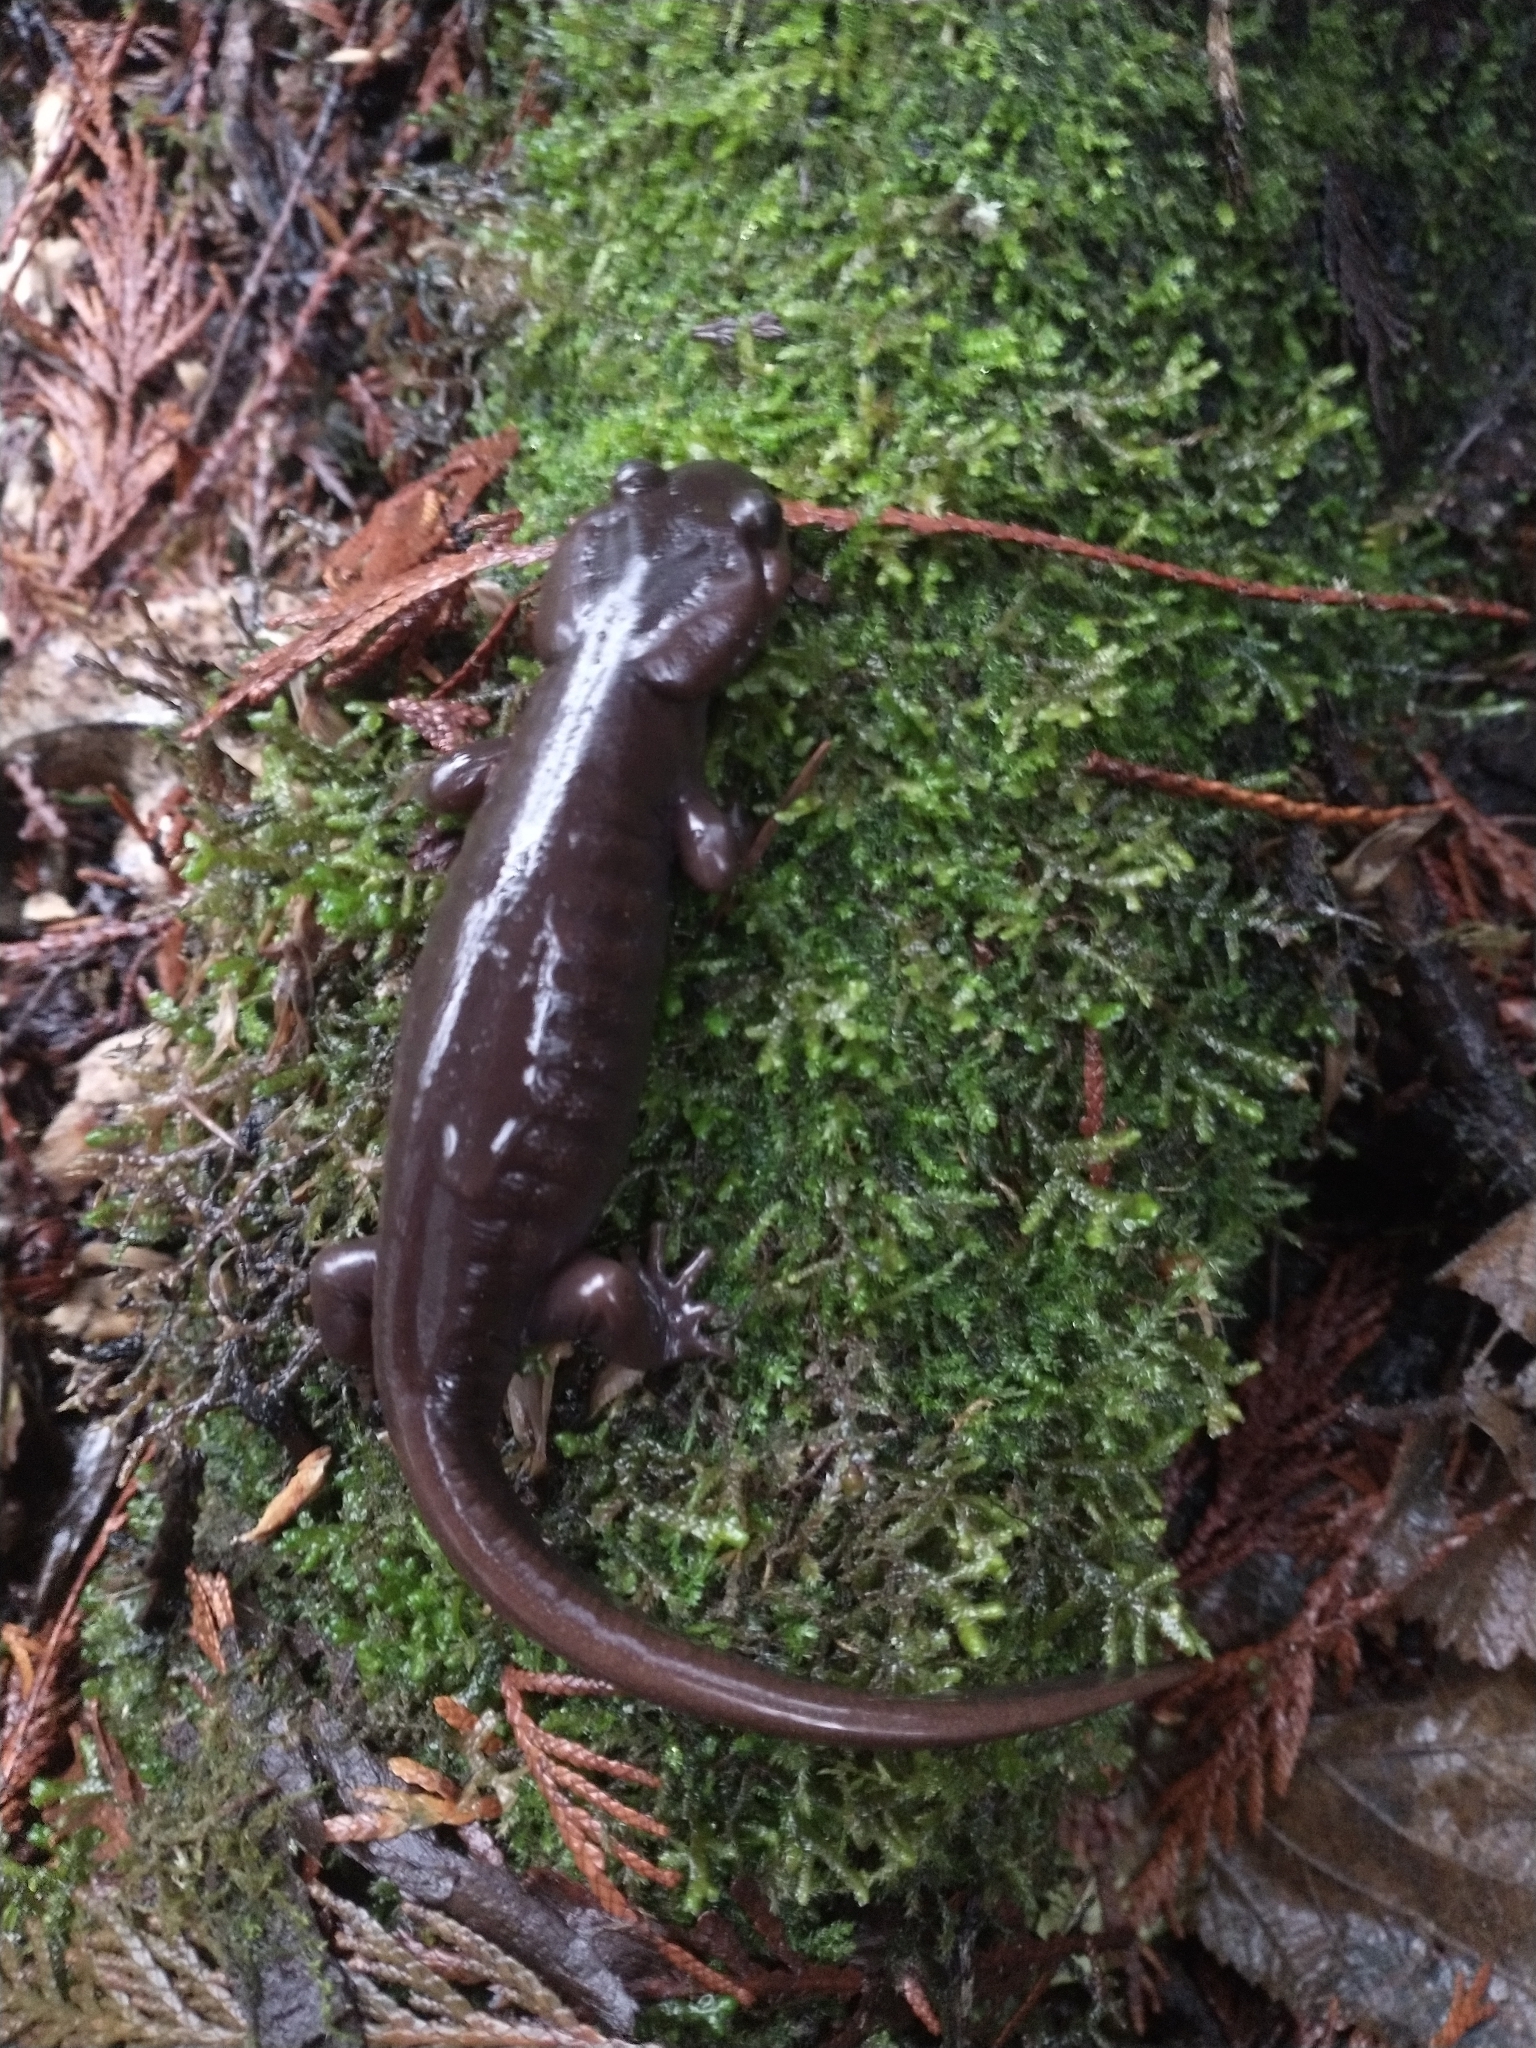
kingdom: Animalia
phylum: Chordata
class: Amphibia
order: Caudata
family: Ambystomatidae
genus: Ambystoma
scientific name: Ambystoma gracile
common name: Northwestern salamander
